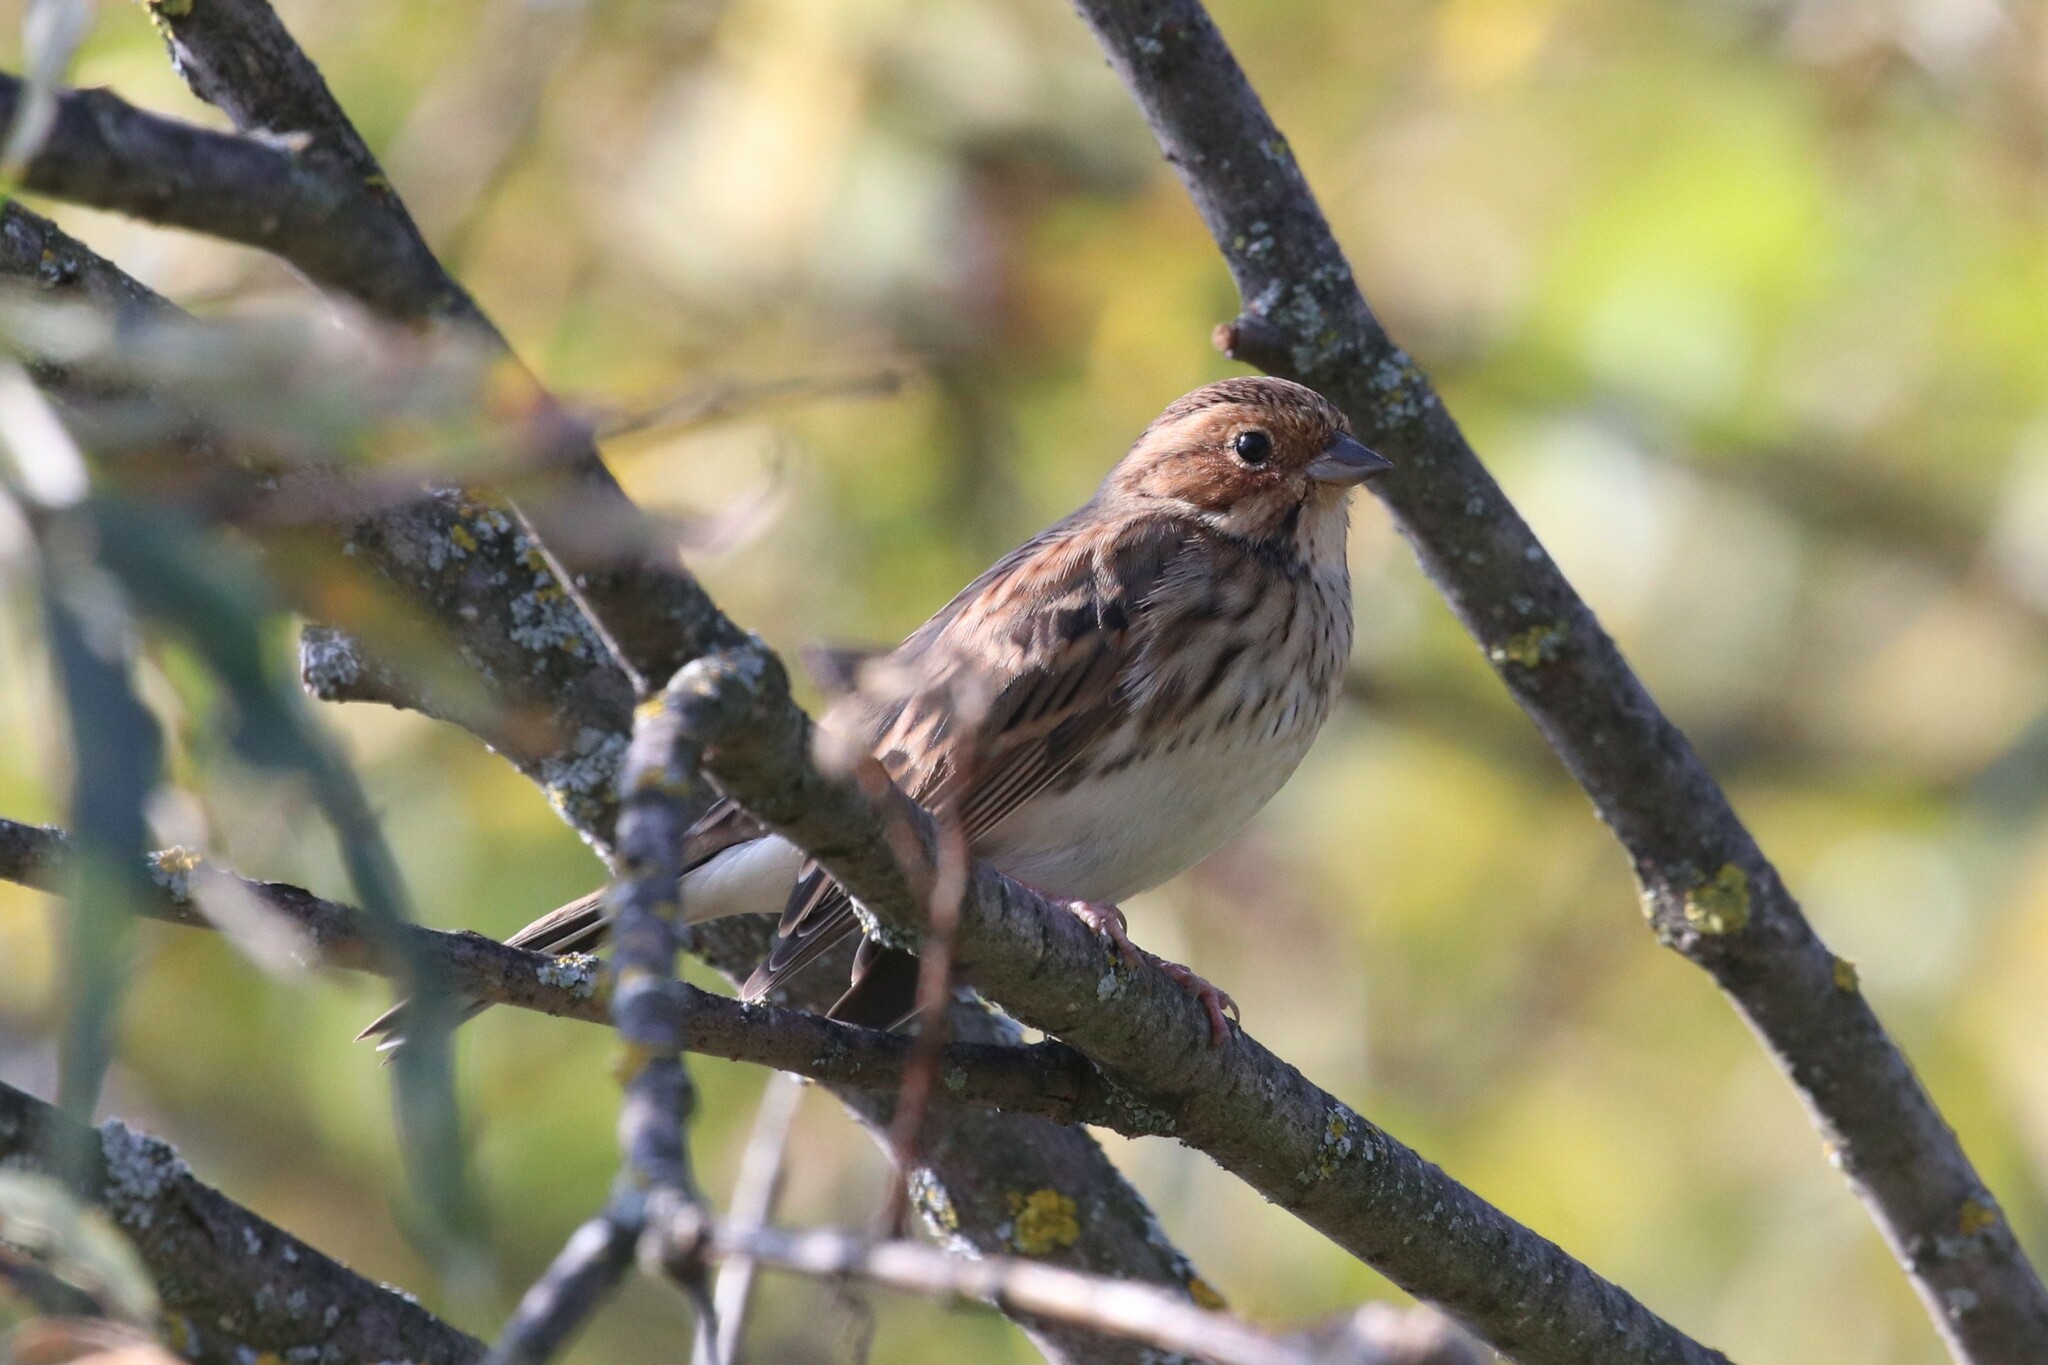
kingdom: Animalia
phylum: Chordata
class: Aves
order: Passeriformes
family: Emberizidae
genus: Emberiza
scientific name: Emberiza pusilla
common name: Little bunting
